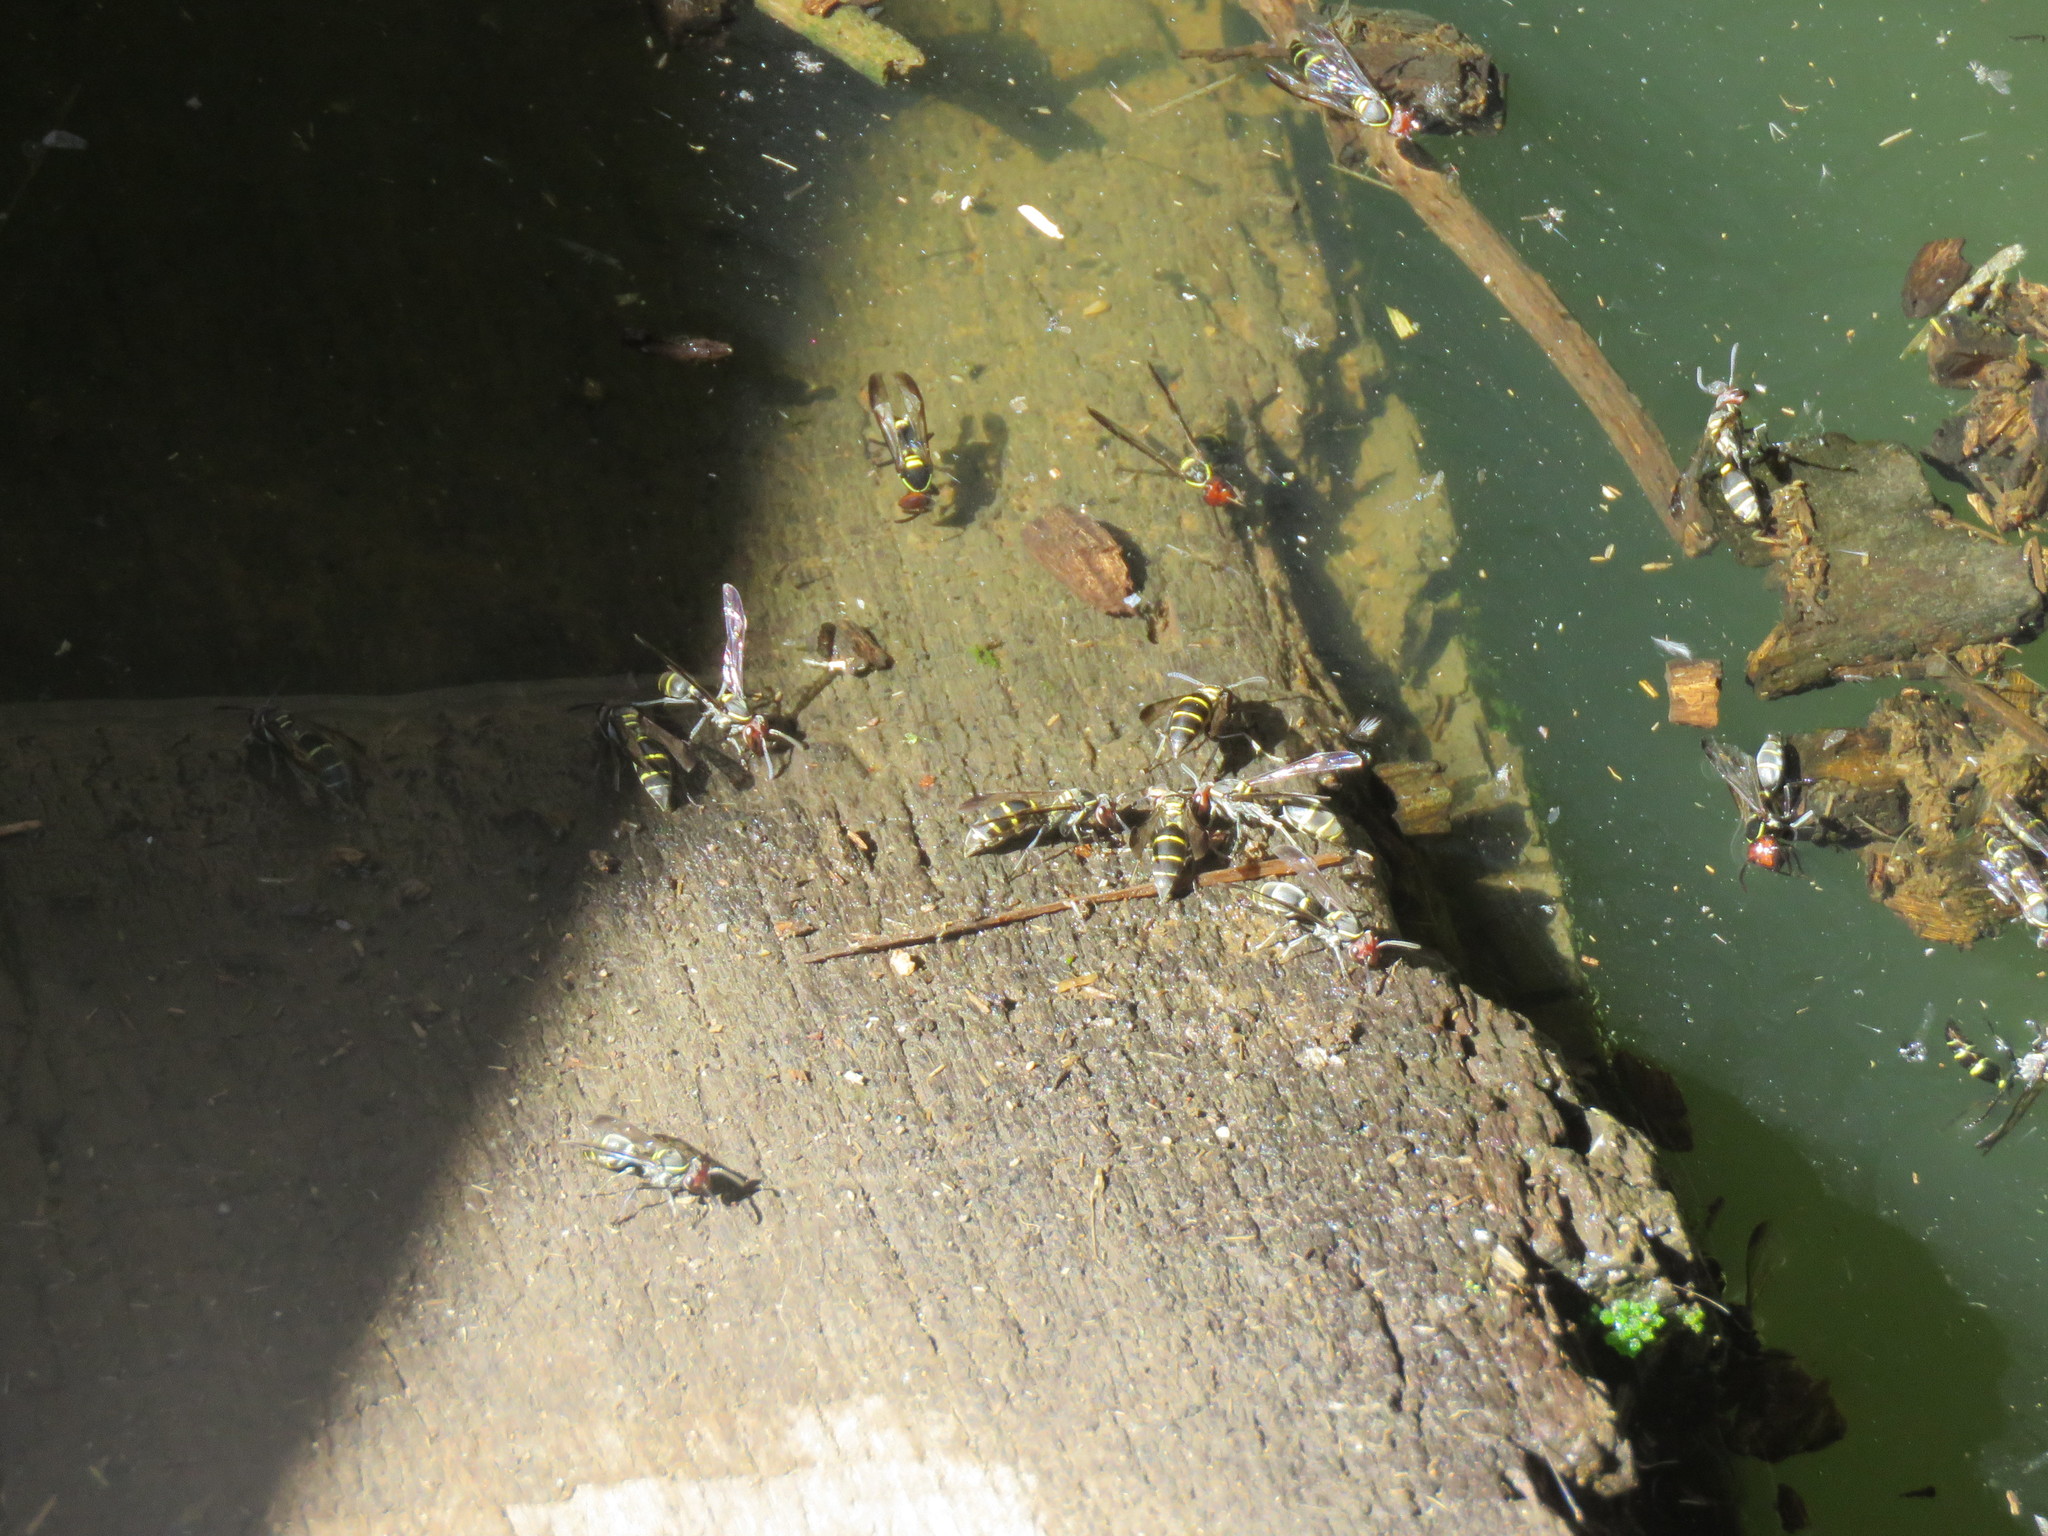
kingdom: Animalia
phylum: Arthropoda
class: Insecta
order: Hymenoptera
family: Eumenidae
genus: Polybia
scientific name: Polybia ruficeps
